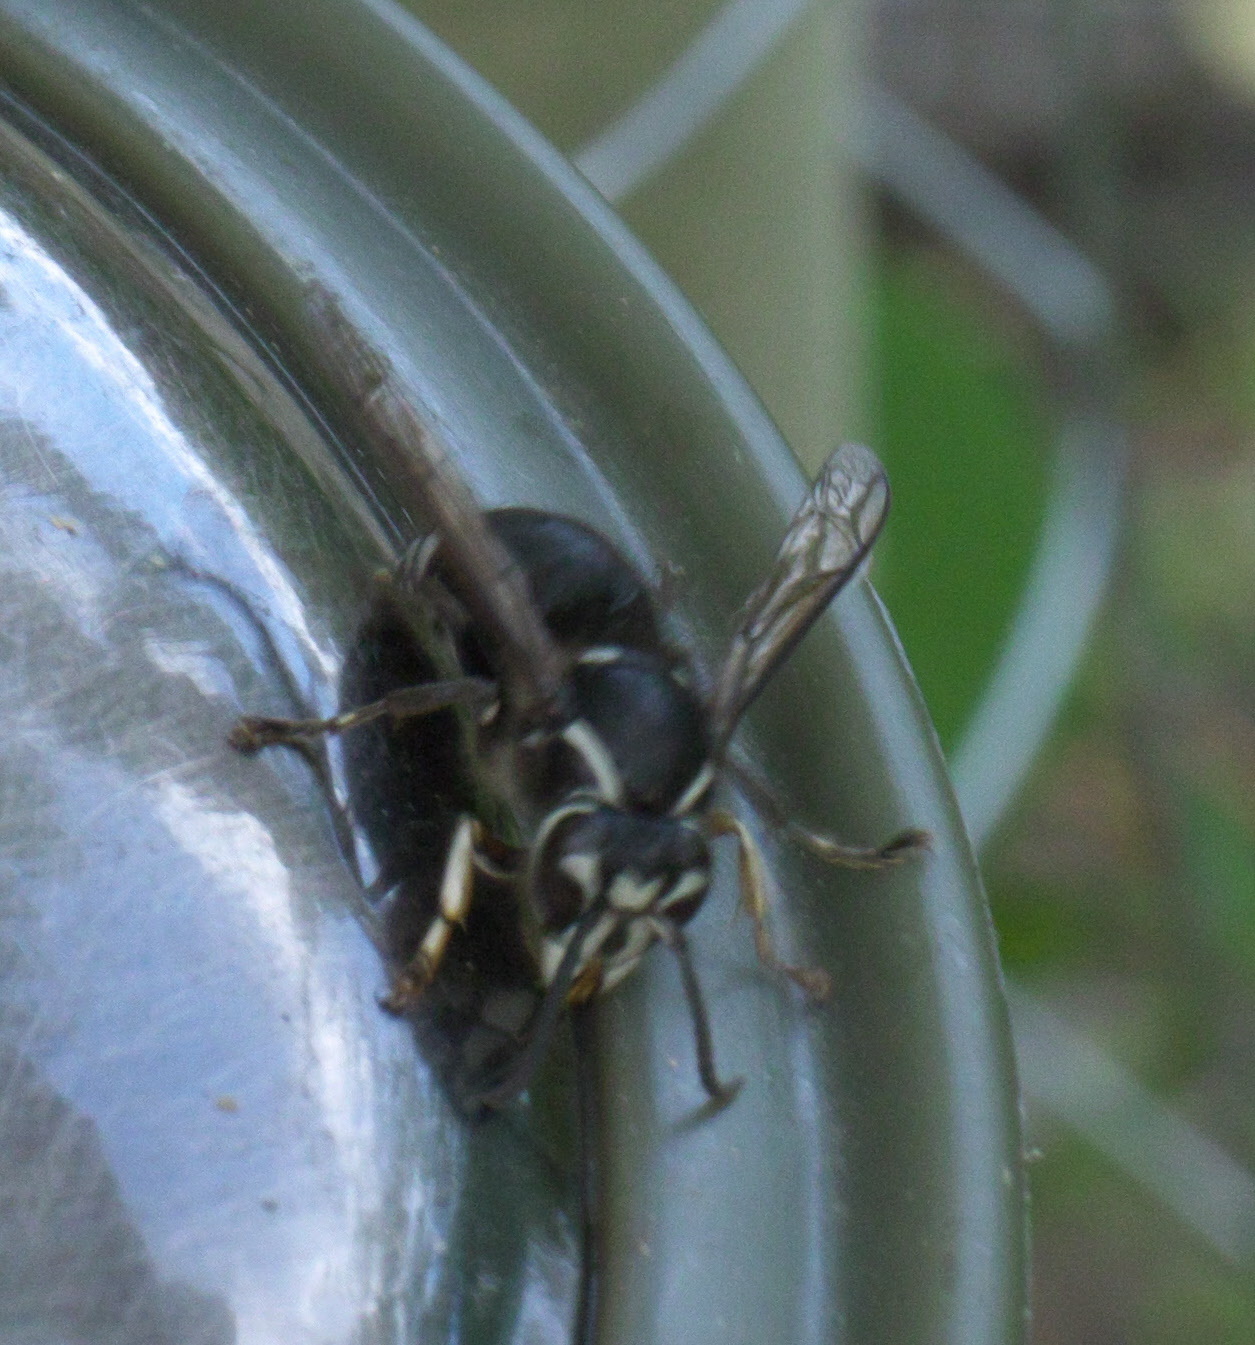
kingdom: Animalia
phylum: Arthropoda
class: Insecta
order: Hymenoptera
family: Vespidae
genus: Dolichovespula
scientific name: Dolichovespula maculata
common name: Bald-faced hornet
